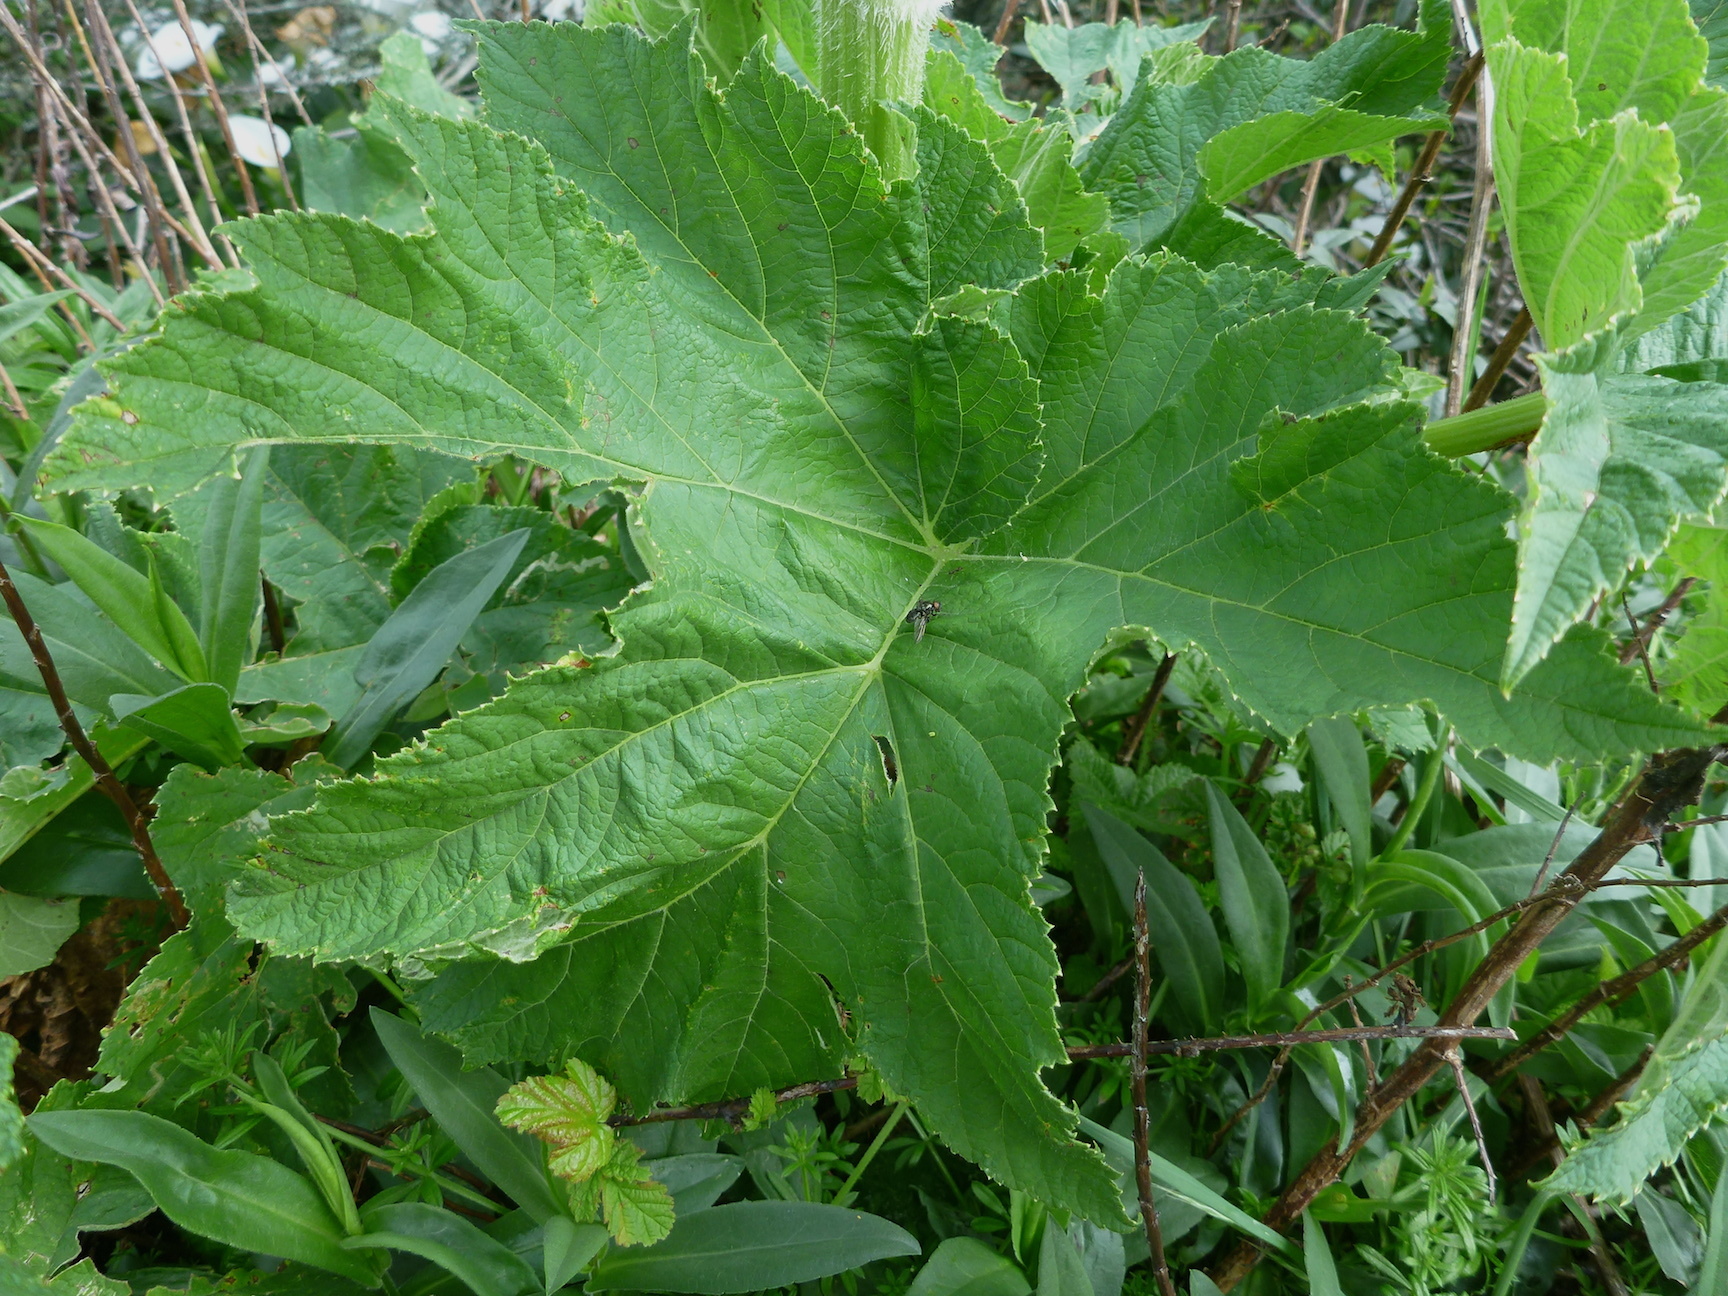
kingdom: Plantae
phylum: Tracheophyta
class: Magnoliopsida
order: Apiales
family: Apiaceae
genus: Heracleum
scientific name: Heracleum maximum
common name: American cow parsnip
